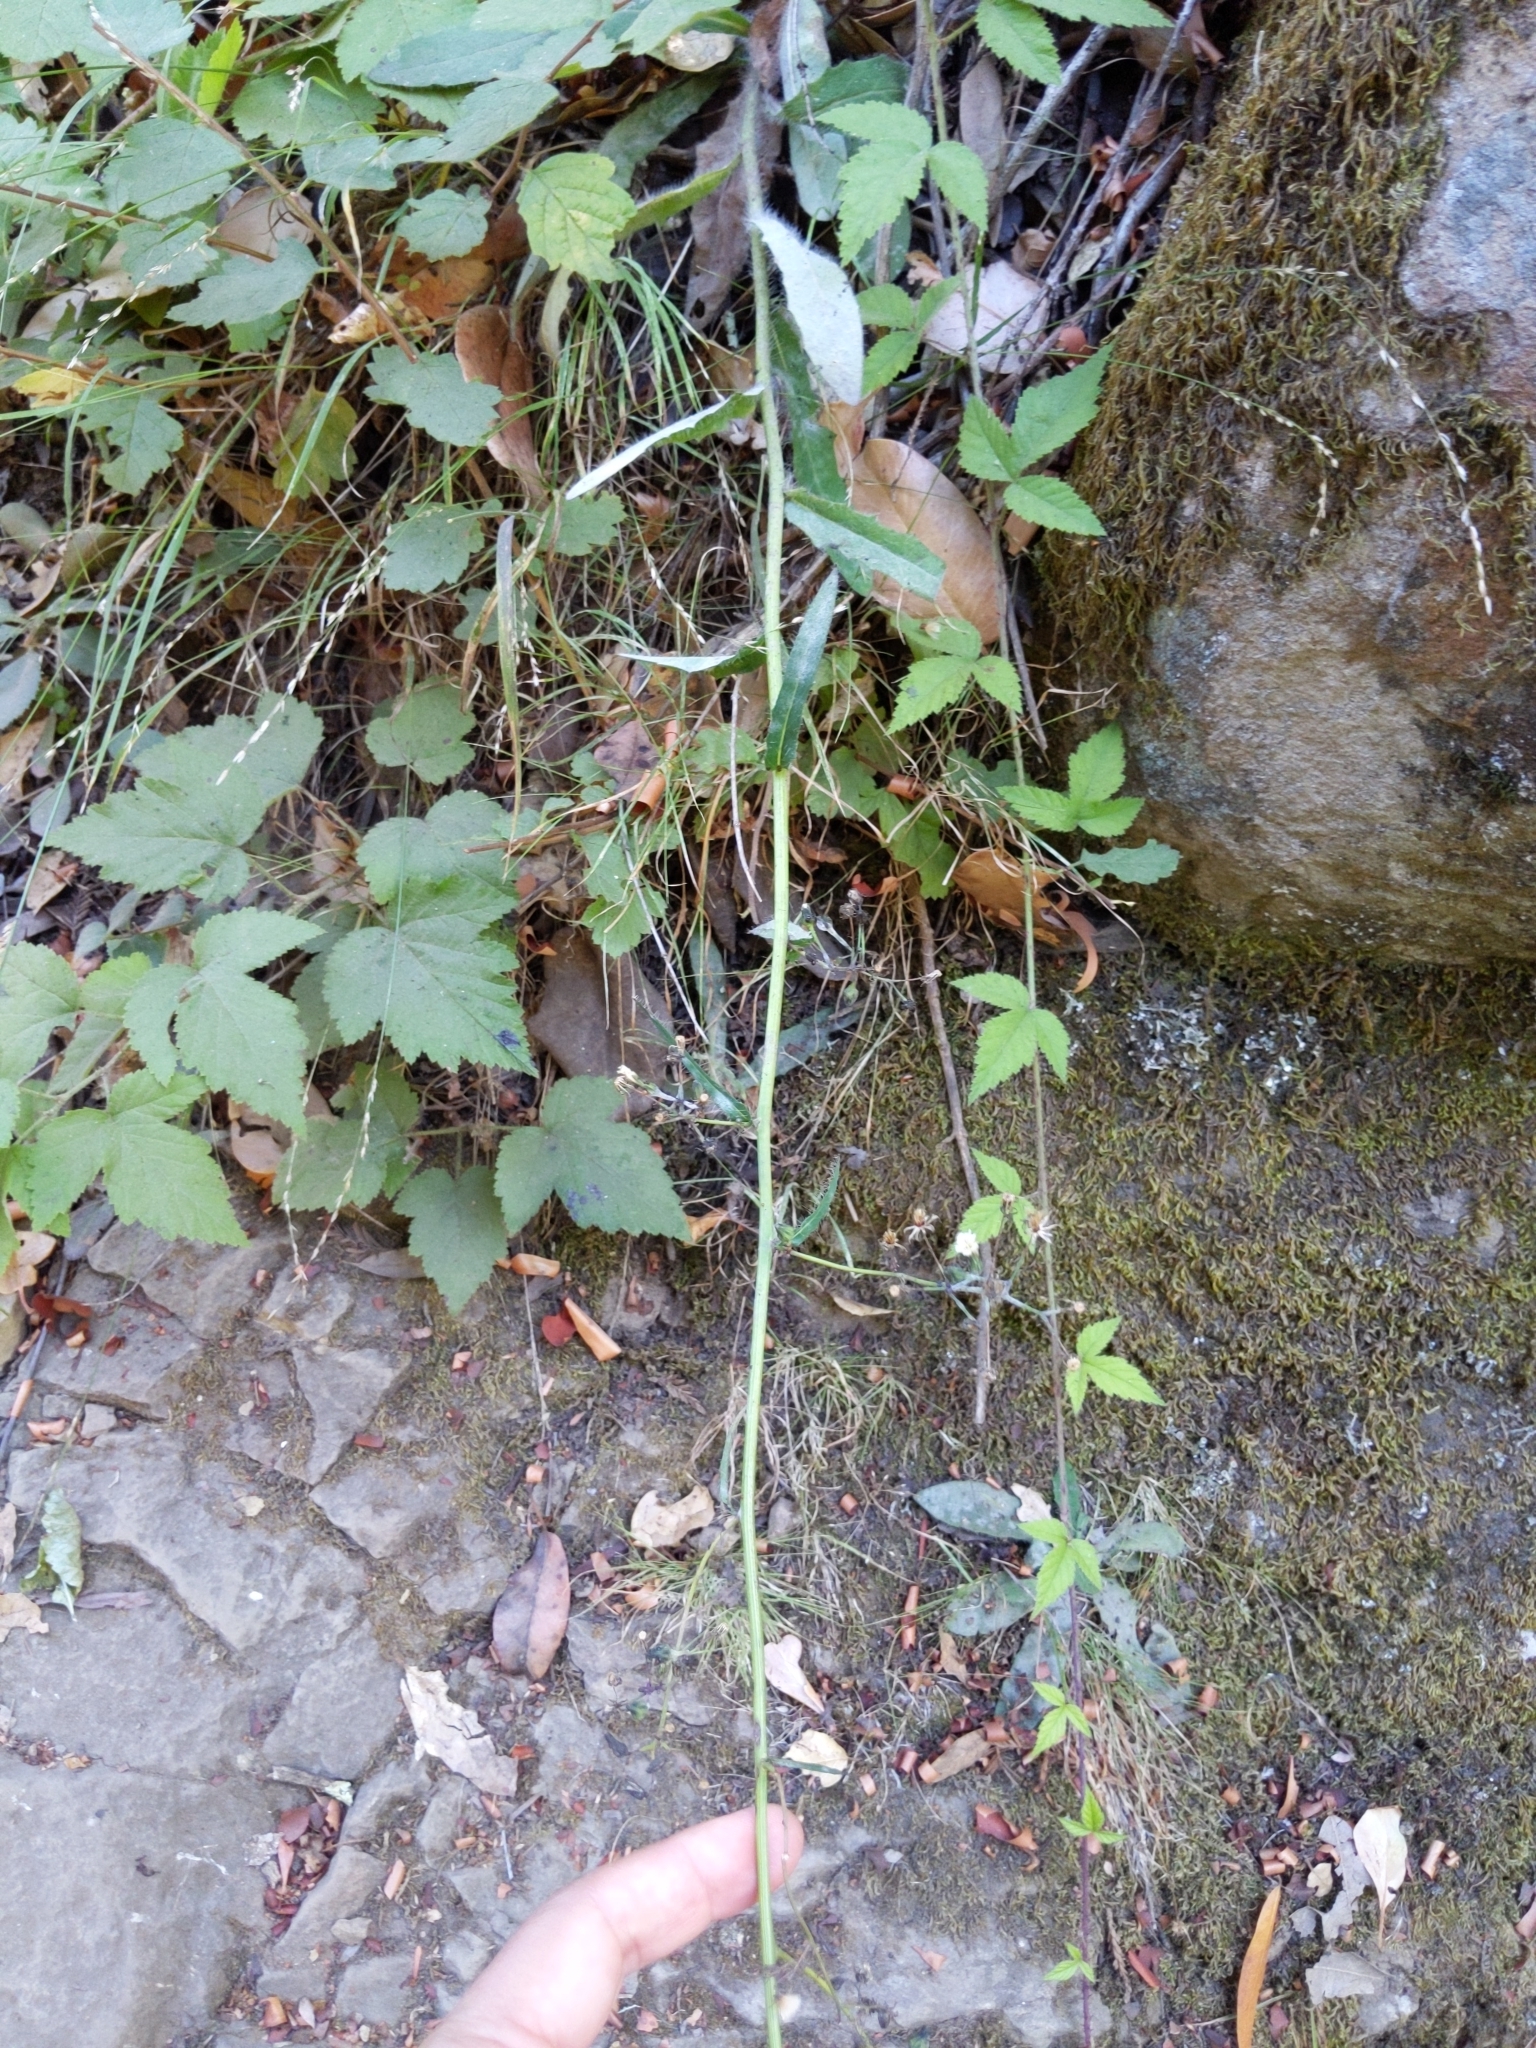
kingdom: Plantae
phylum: Tracheophyta
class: Magnoliopsida
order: Asterales
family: Asteraceae
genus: Hieracium
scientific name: Hieracium albiflorum
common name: White hawkweed
